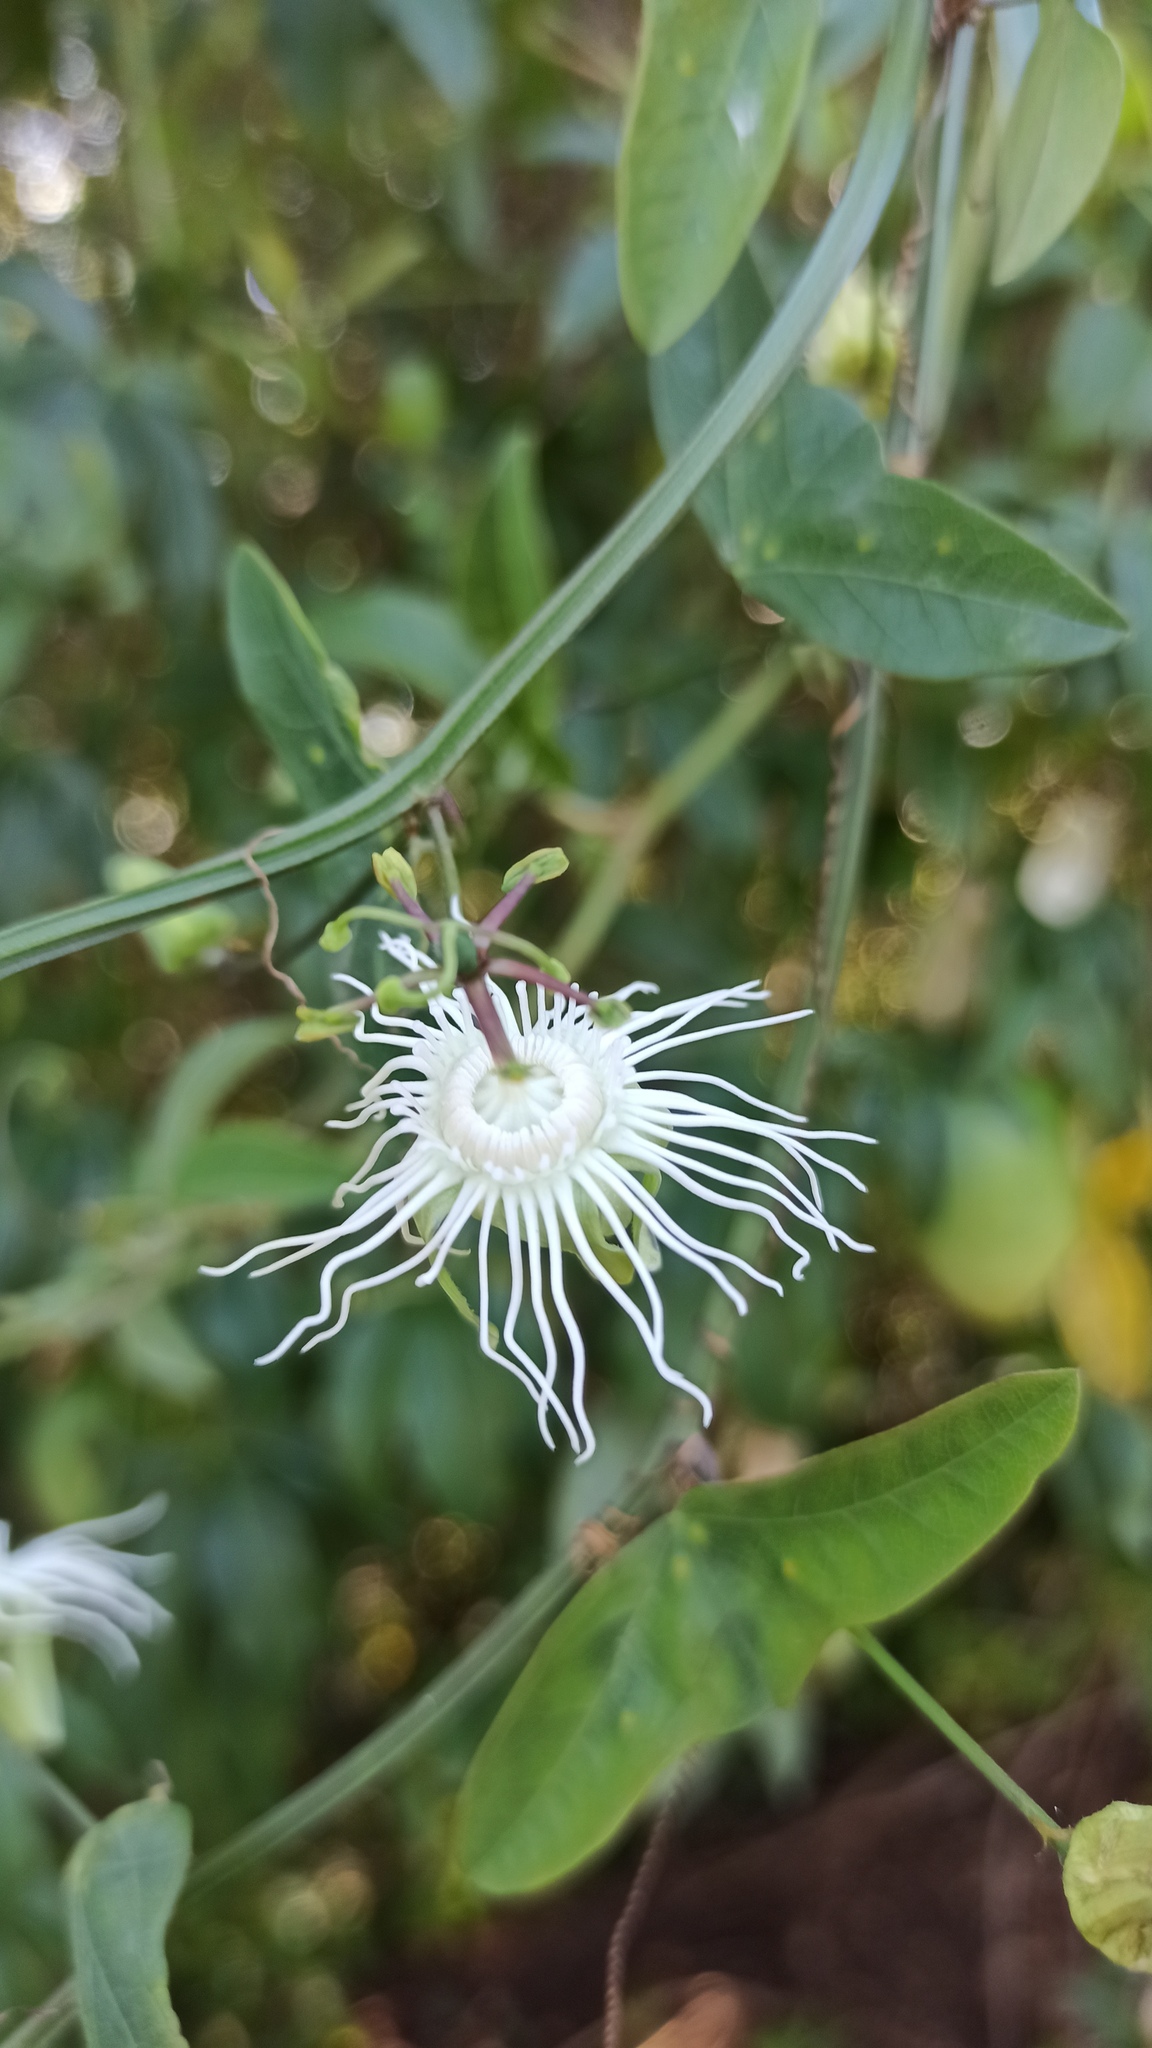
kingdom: Plantae
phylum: Tracheophyta
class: Magnoliopsida
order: Malpighiales
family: Passifloraceae
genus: Passiflora
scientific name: Passiflora misera
